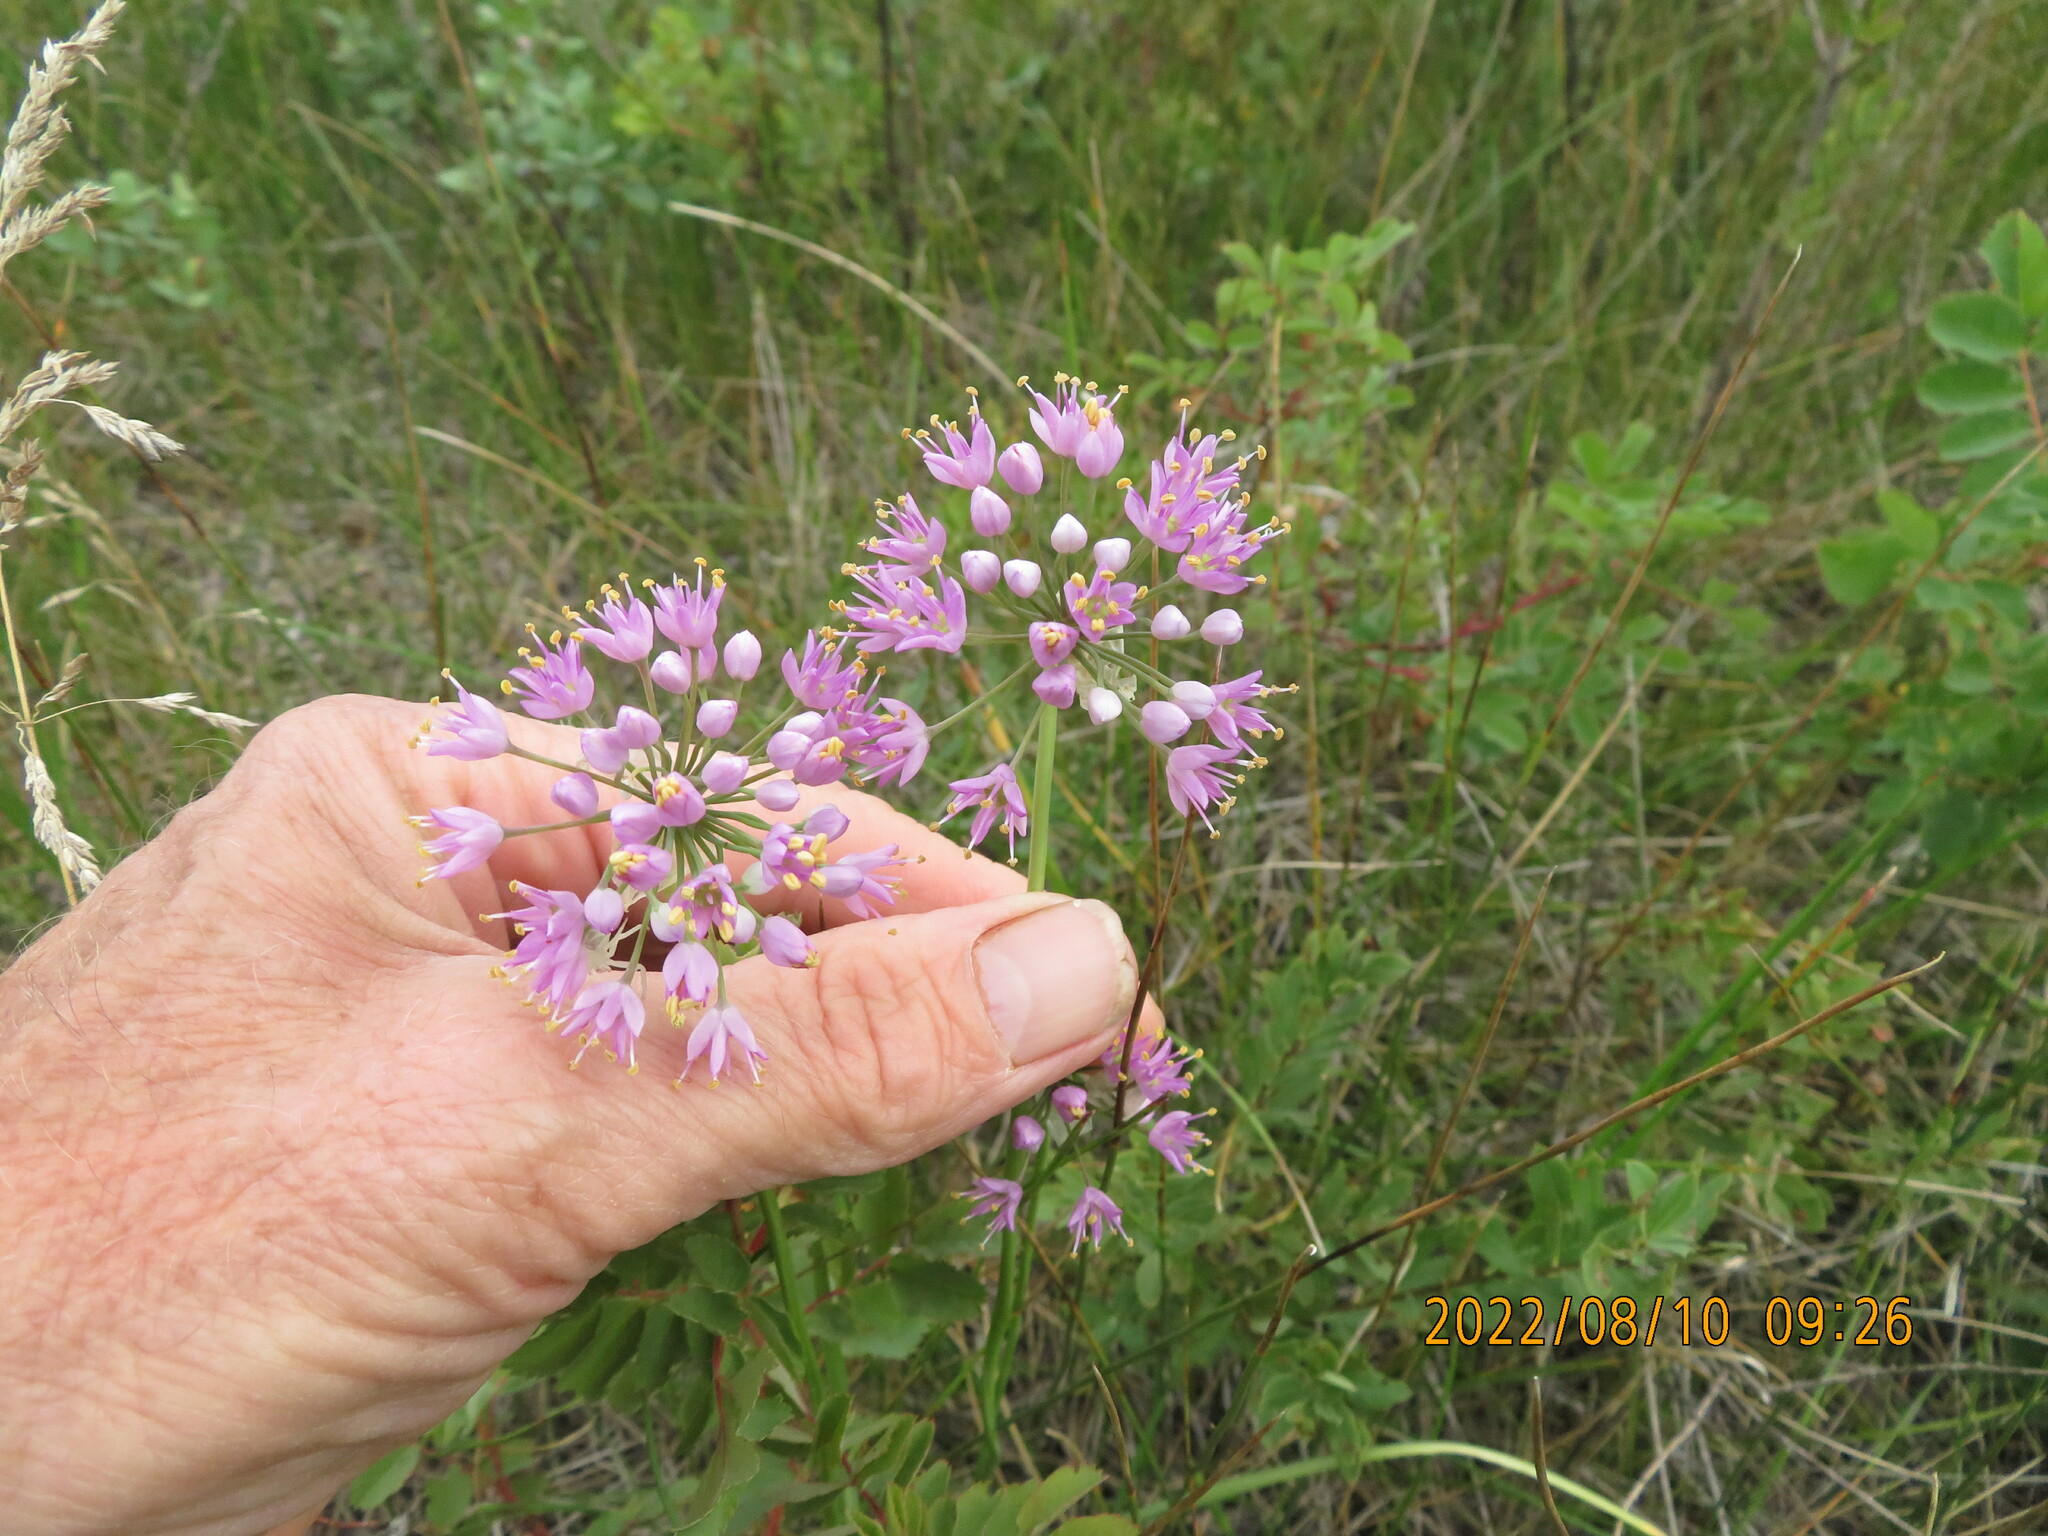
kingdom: Plantae
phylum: Tracheophyta
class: Liliopsida
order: Asparagales
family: Amaryllidaceae
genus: Allium
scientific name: Allium stellatum
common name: Autumn onion
